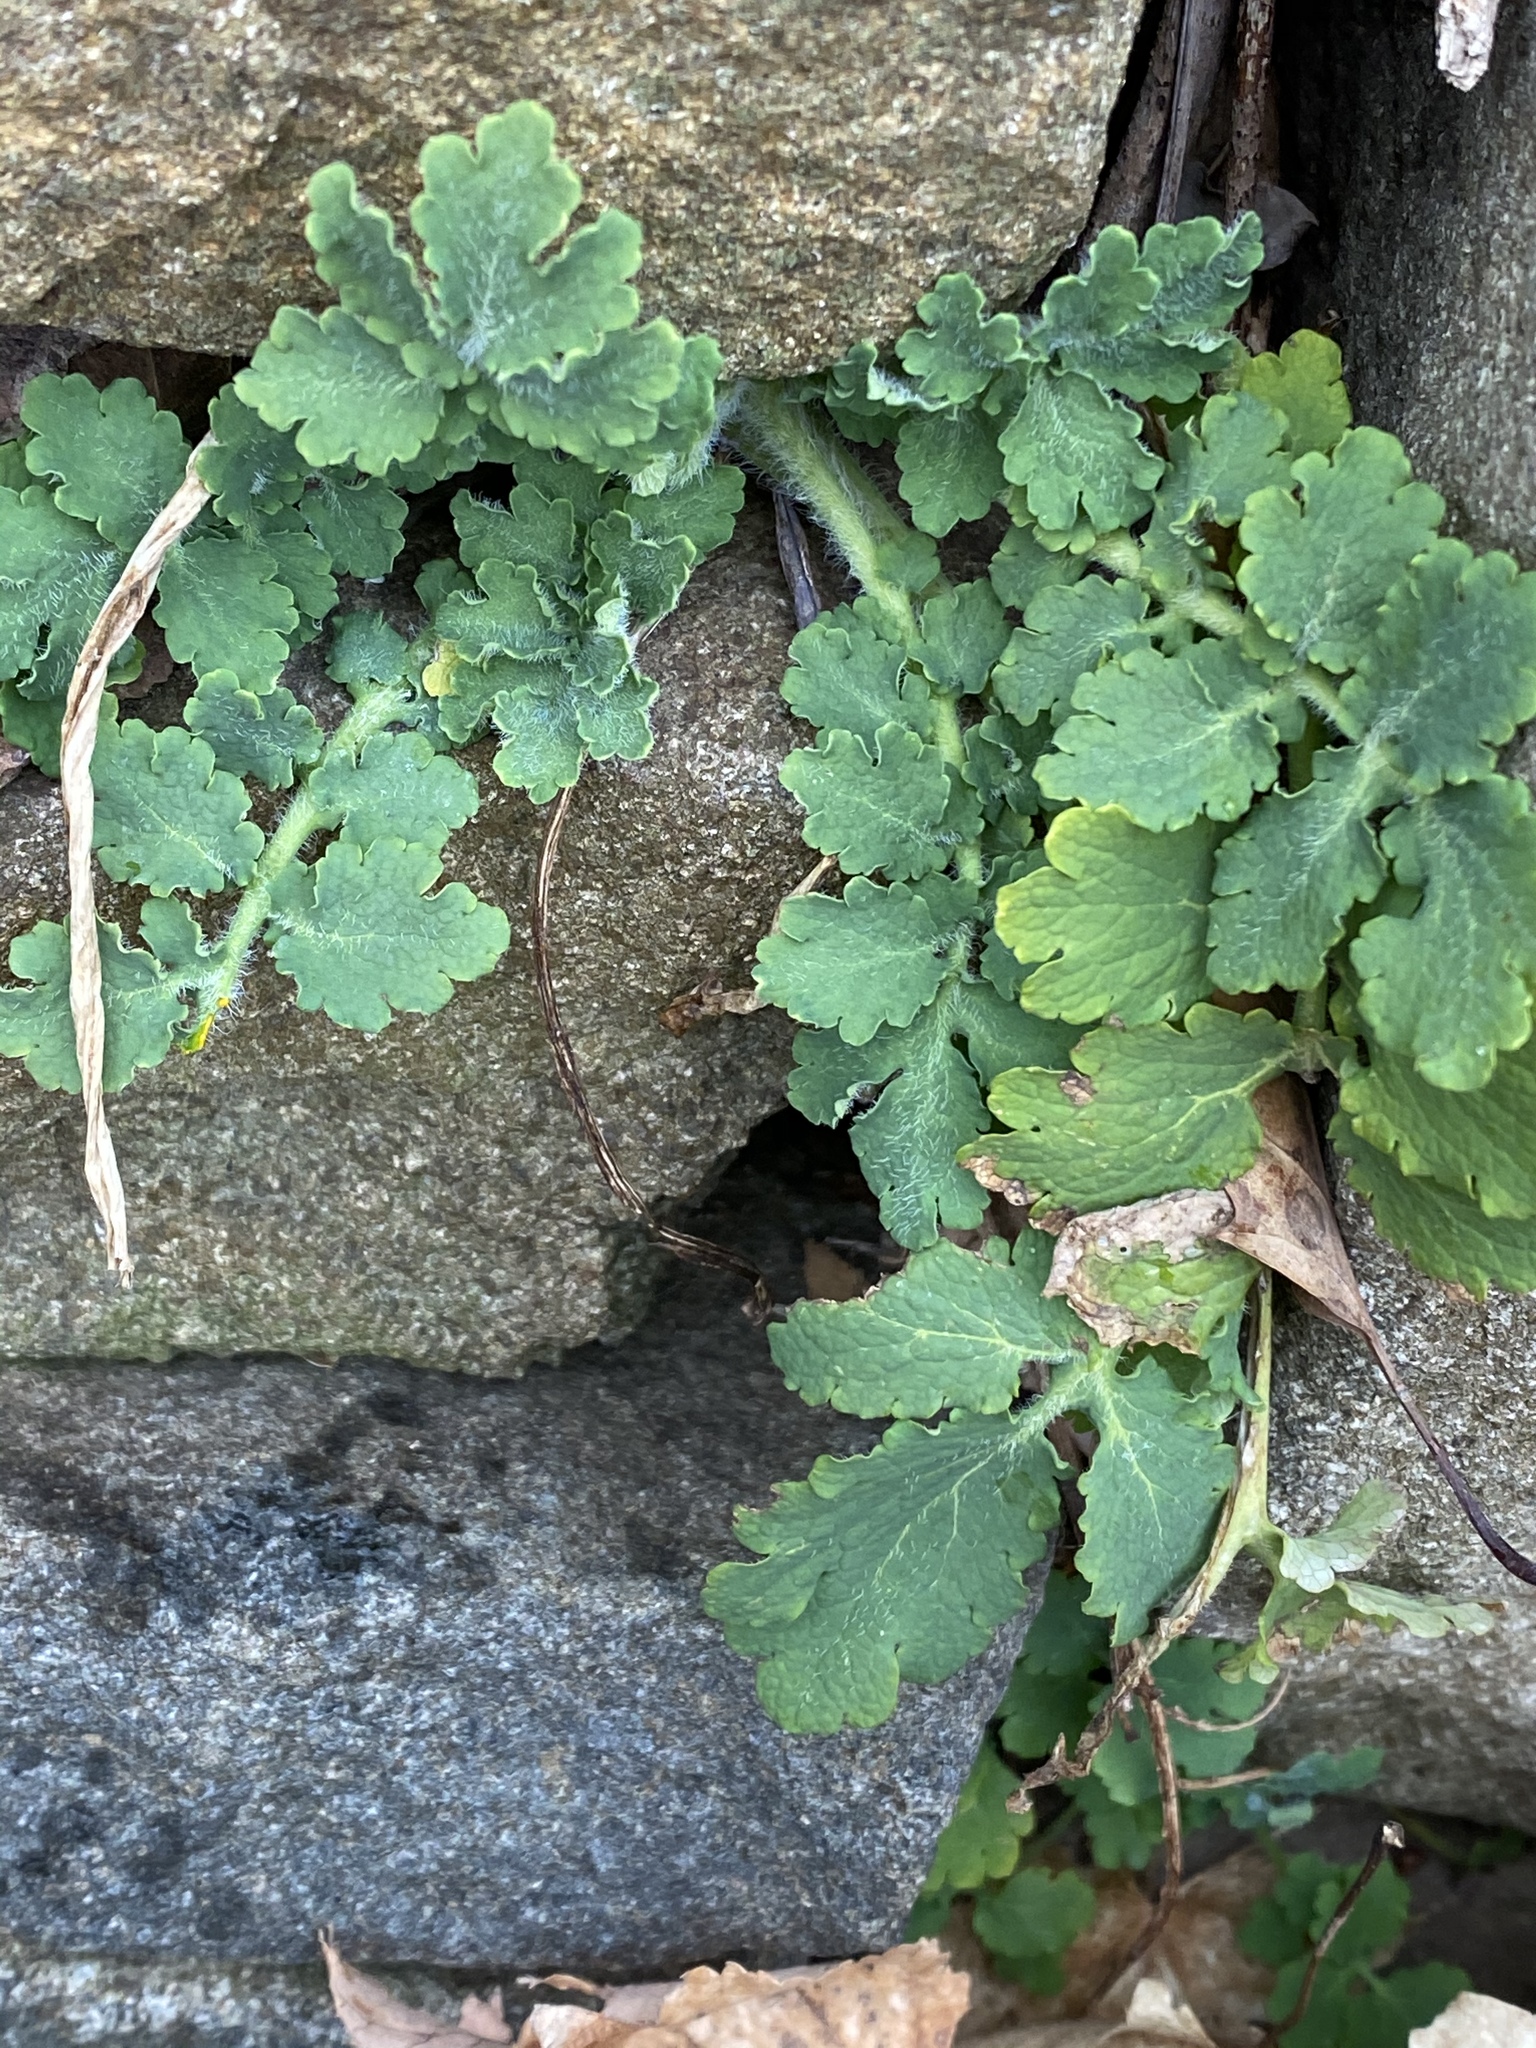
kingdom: Plantae
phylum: Tracheophyta
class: Magnoliopsida
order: Ranunculales
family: Papaveraceae
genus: Chelidonium
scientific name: Chelidonium majus
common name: Greater celandine
